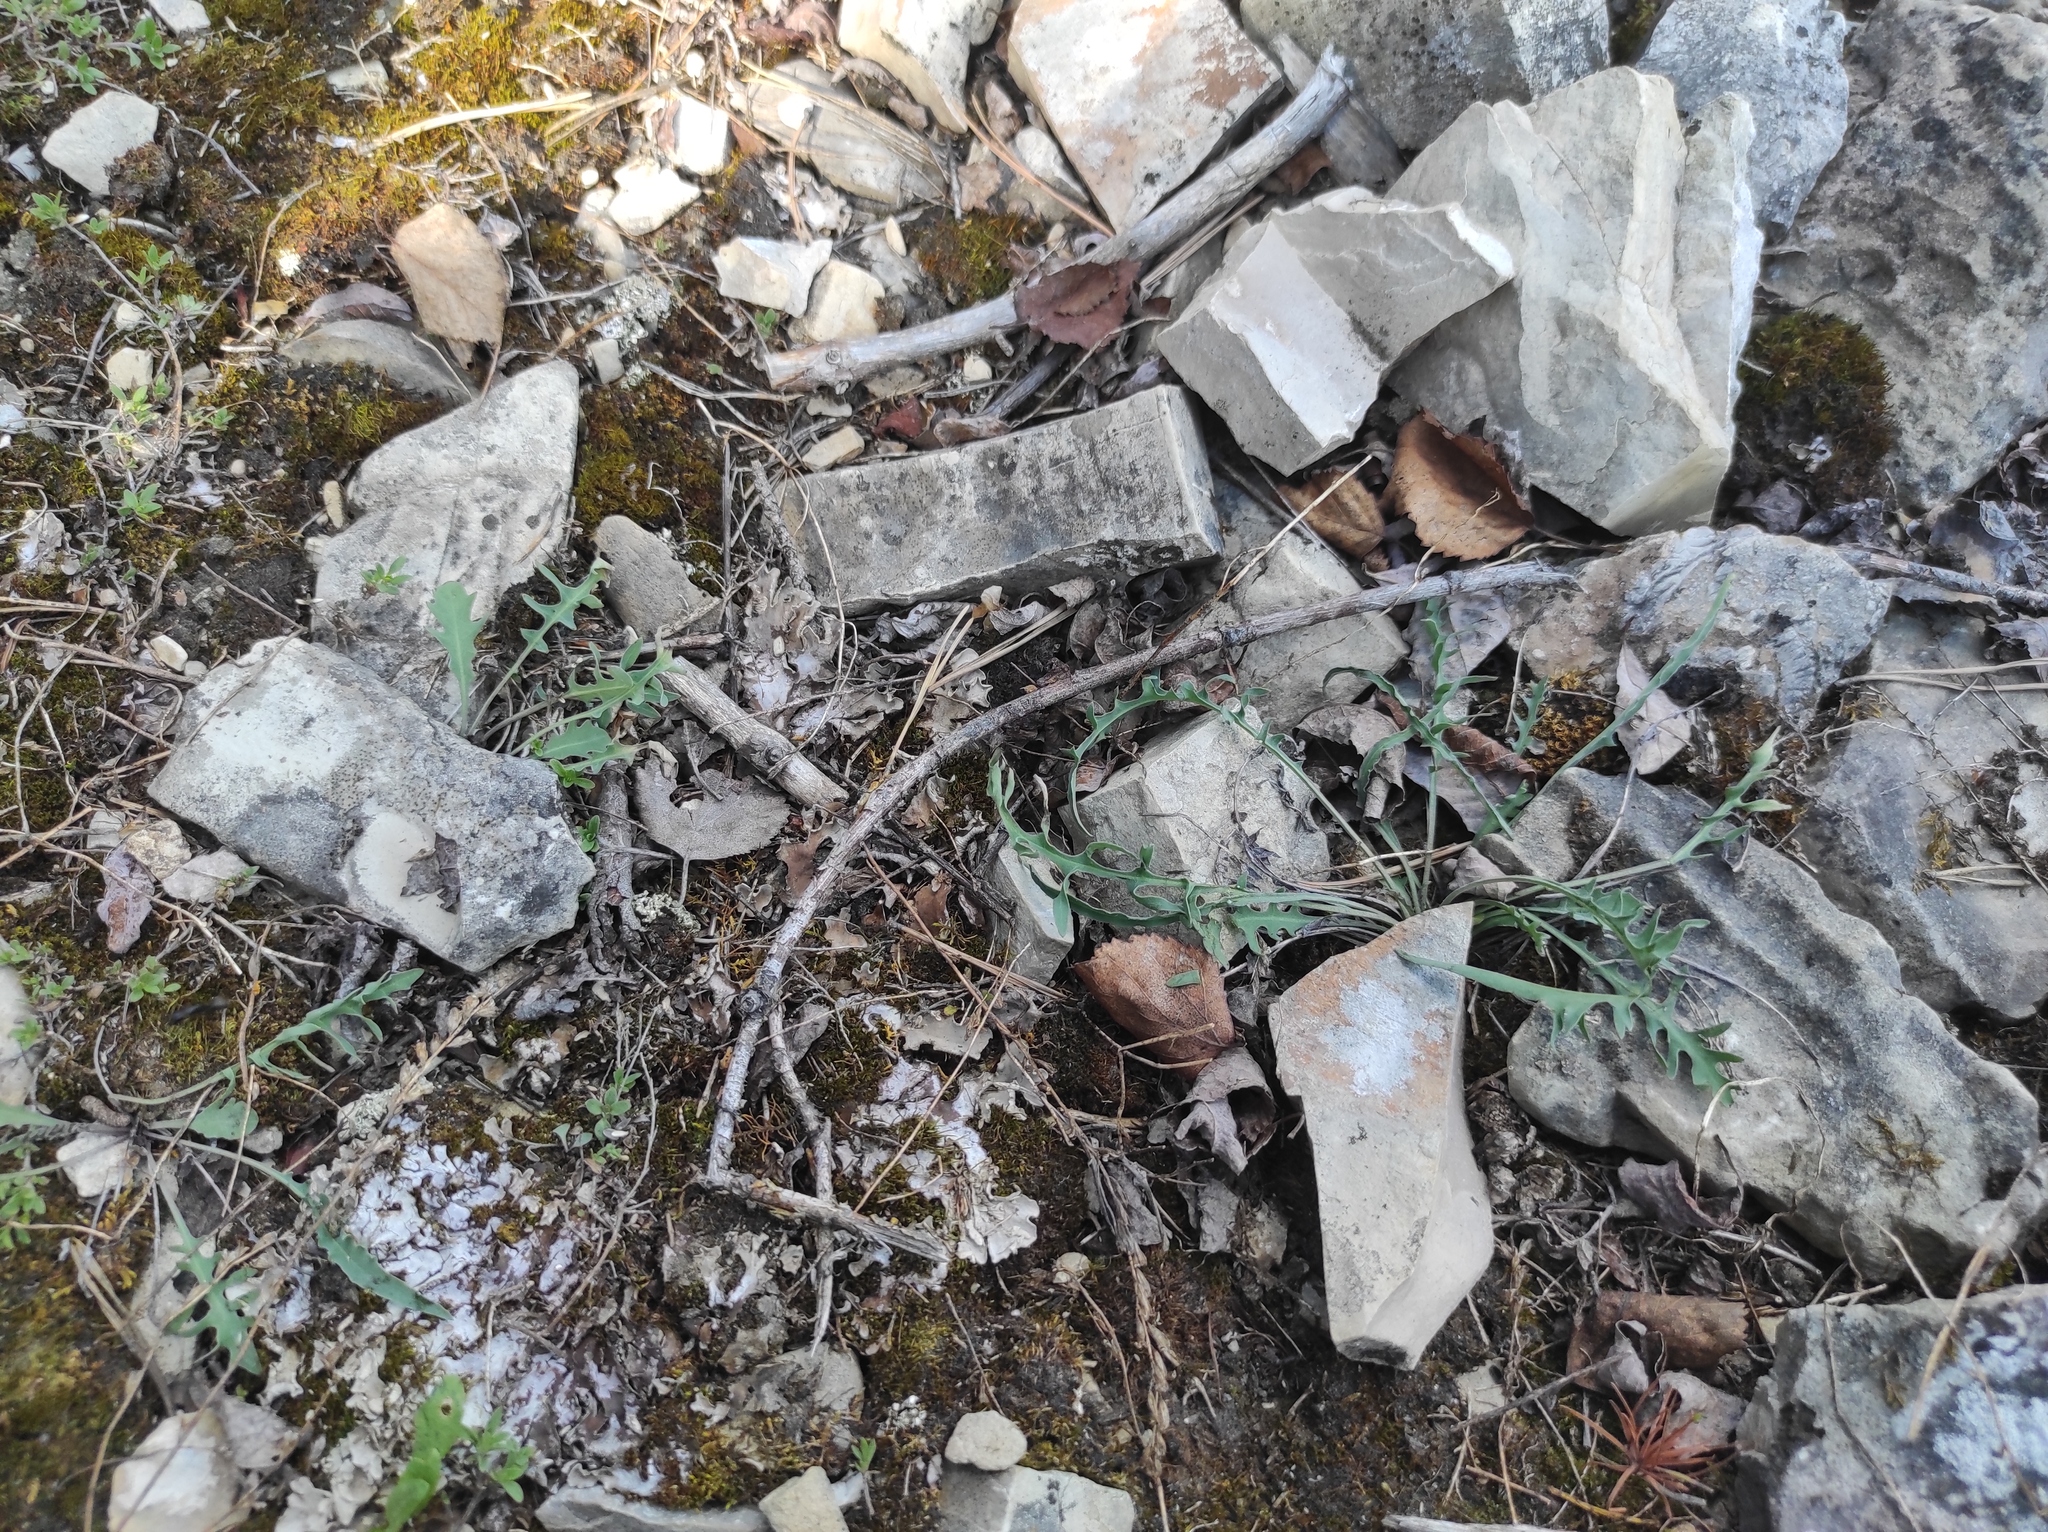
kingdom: Plantae
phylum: Tracheophyta
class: Magnoliopsida
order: Asterales
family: Asteraceae
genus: Crepidiastrum
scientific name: Crepidiastrum tenuifolium
